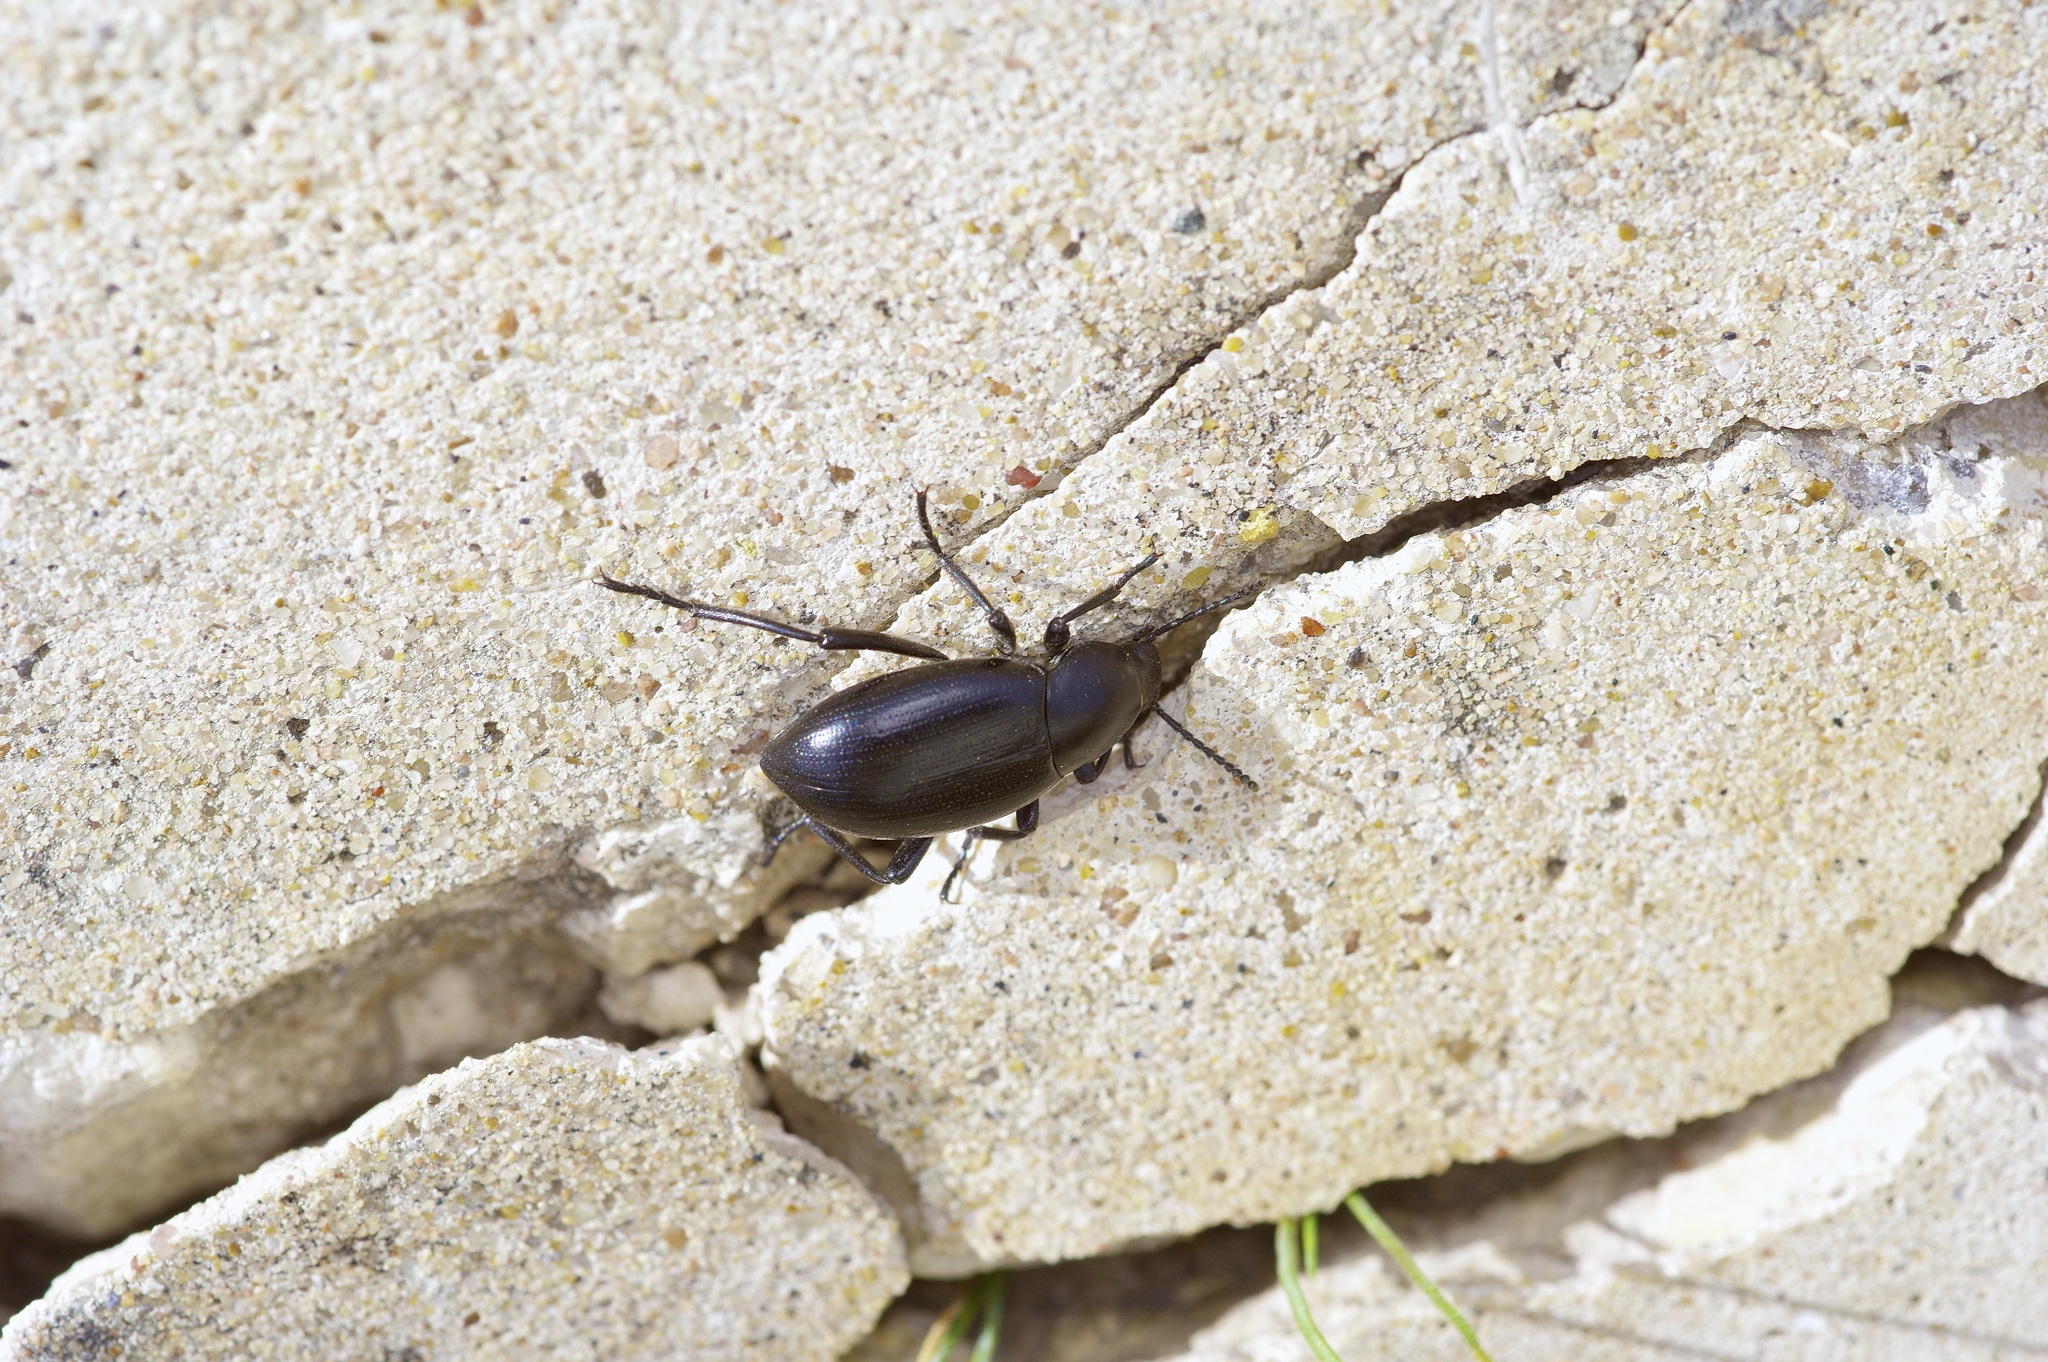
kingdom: Animalia
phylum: Arthropoda
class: Insecta
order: Coleoptera
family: Tenebrionidae
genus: Eleodes
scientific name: Eleodes debilis
